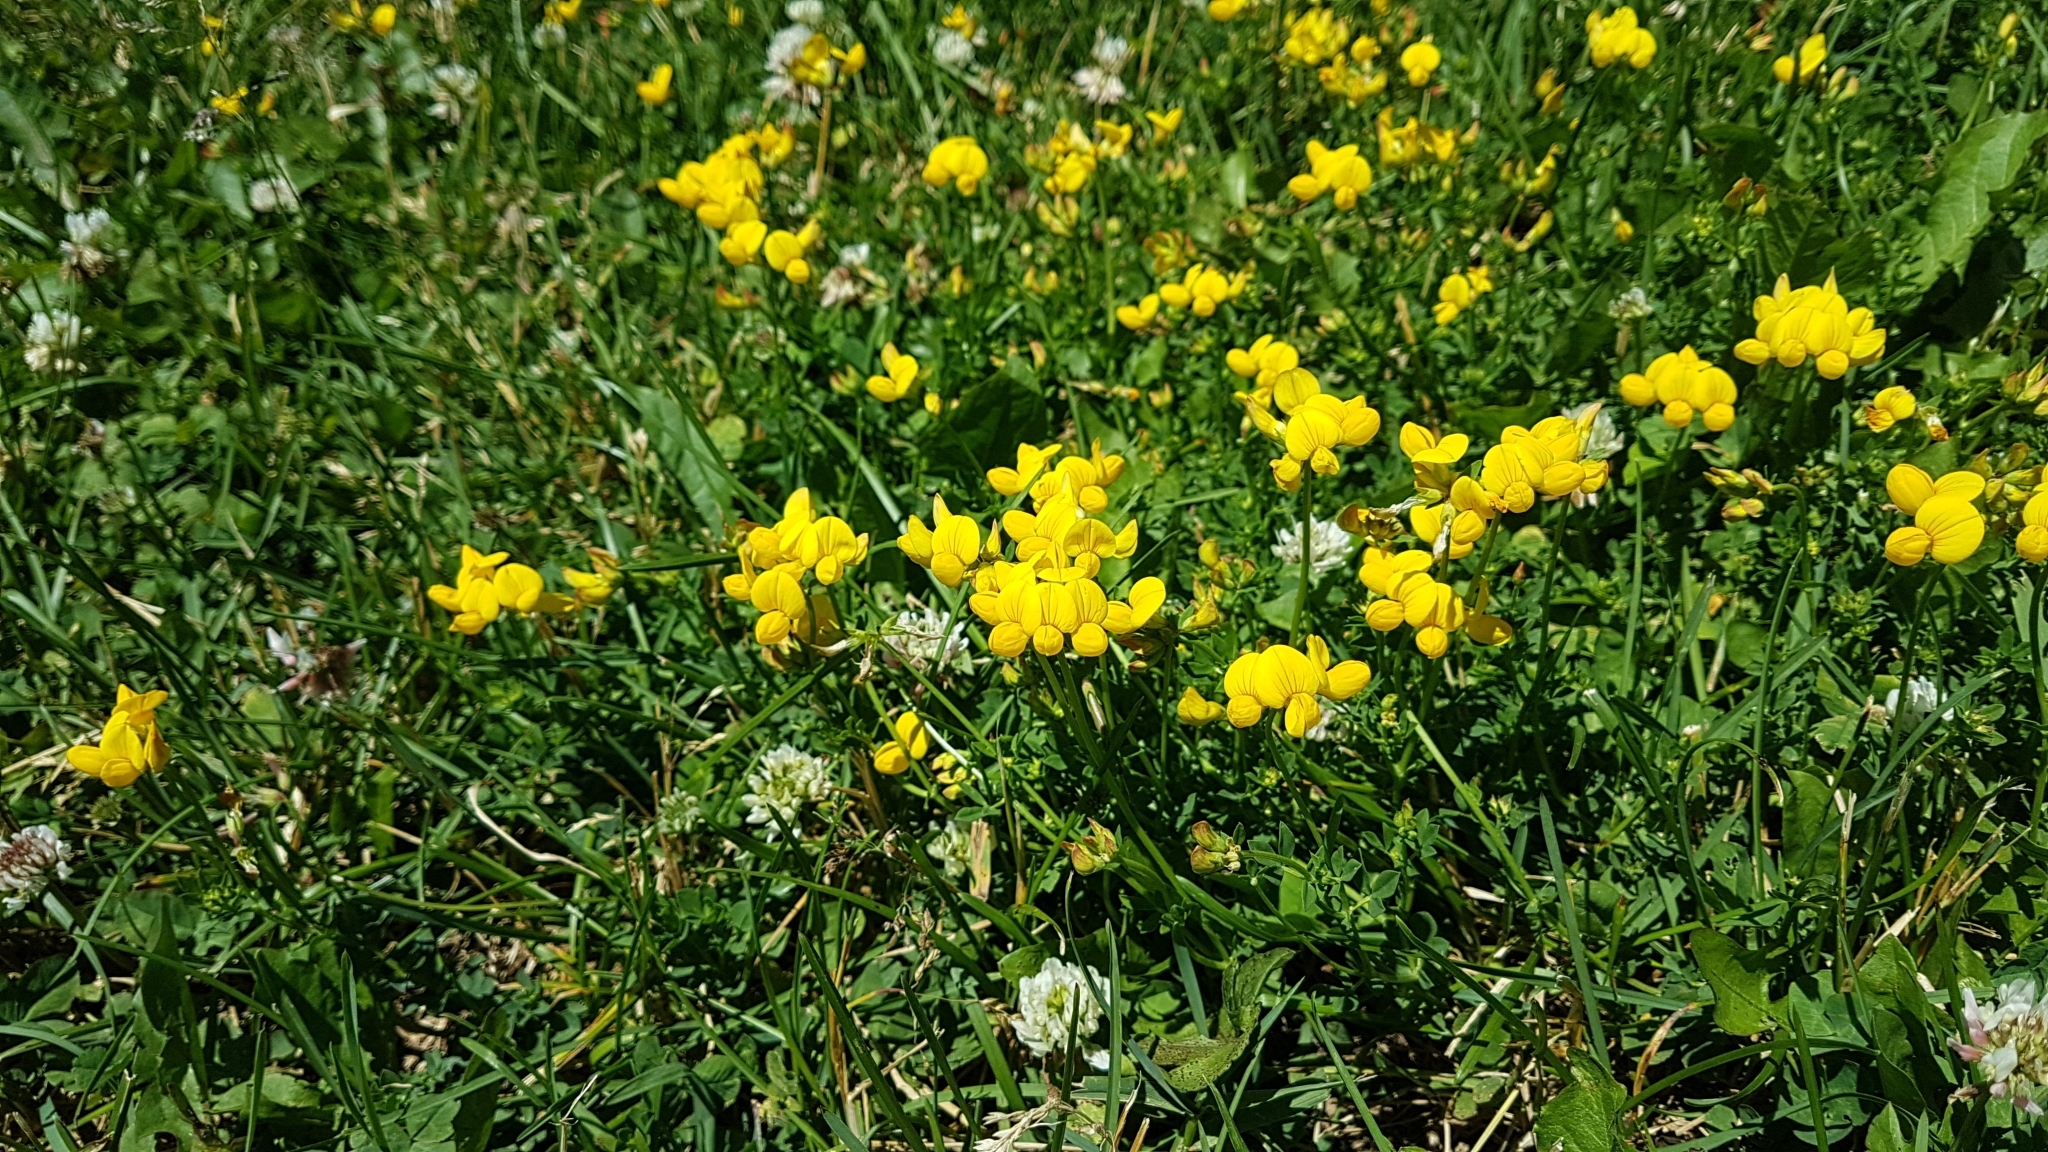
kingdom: Plantae
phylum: Tracheophyta
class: Magnoliopsida
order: Fabales
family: Fabaceae
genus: Lotus
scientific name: Lotus corniculatus
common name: Common bird's-foot-trefoil
